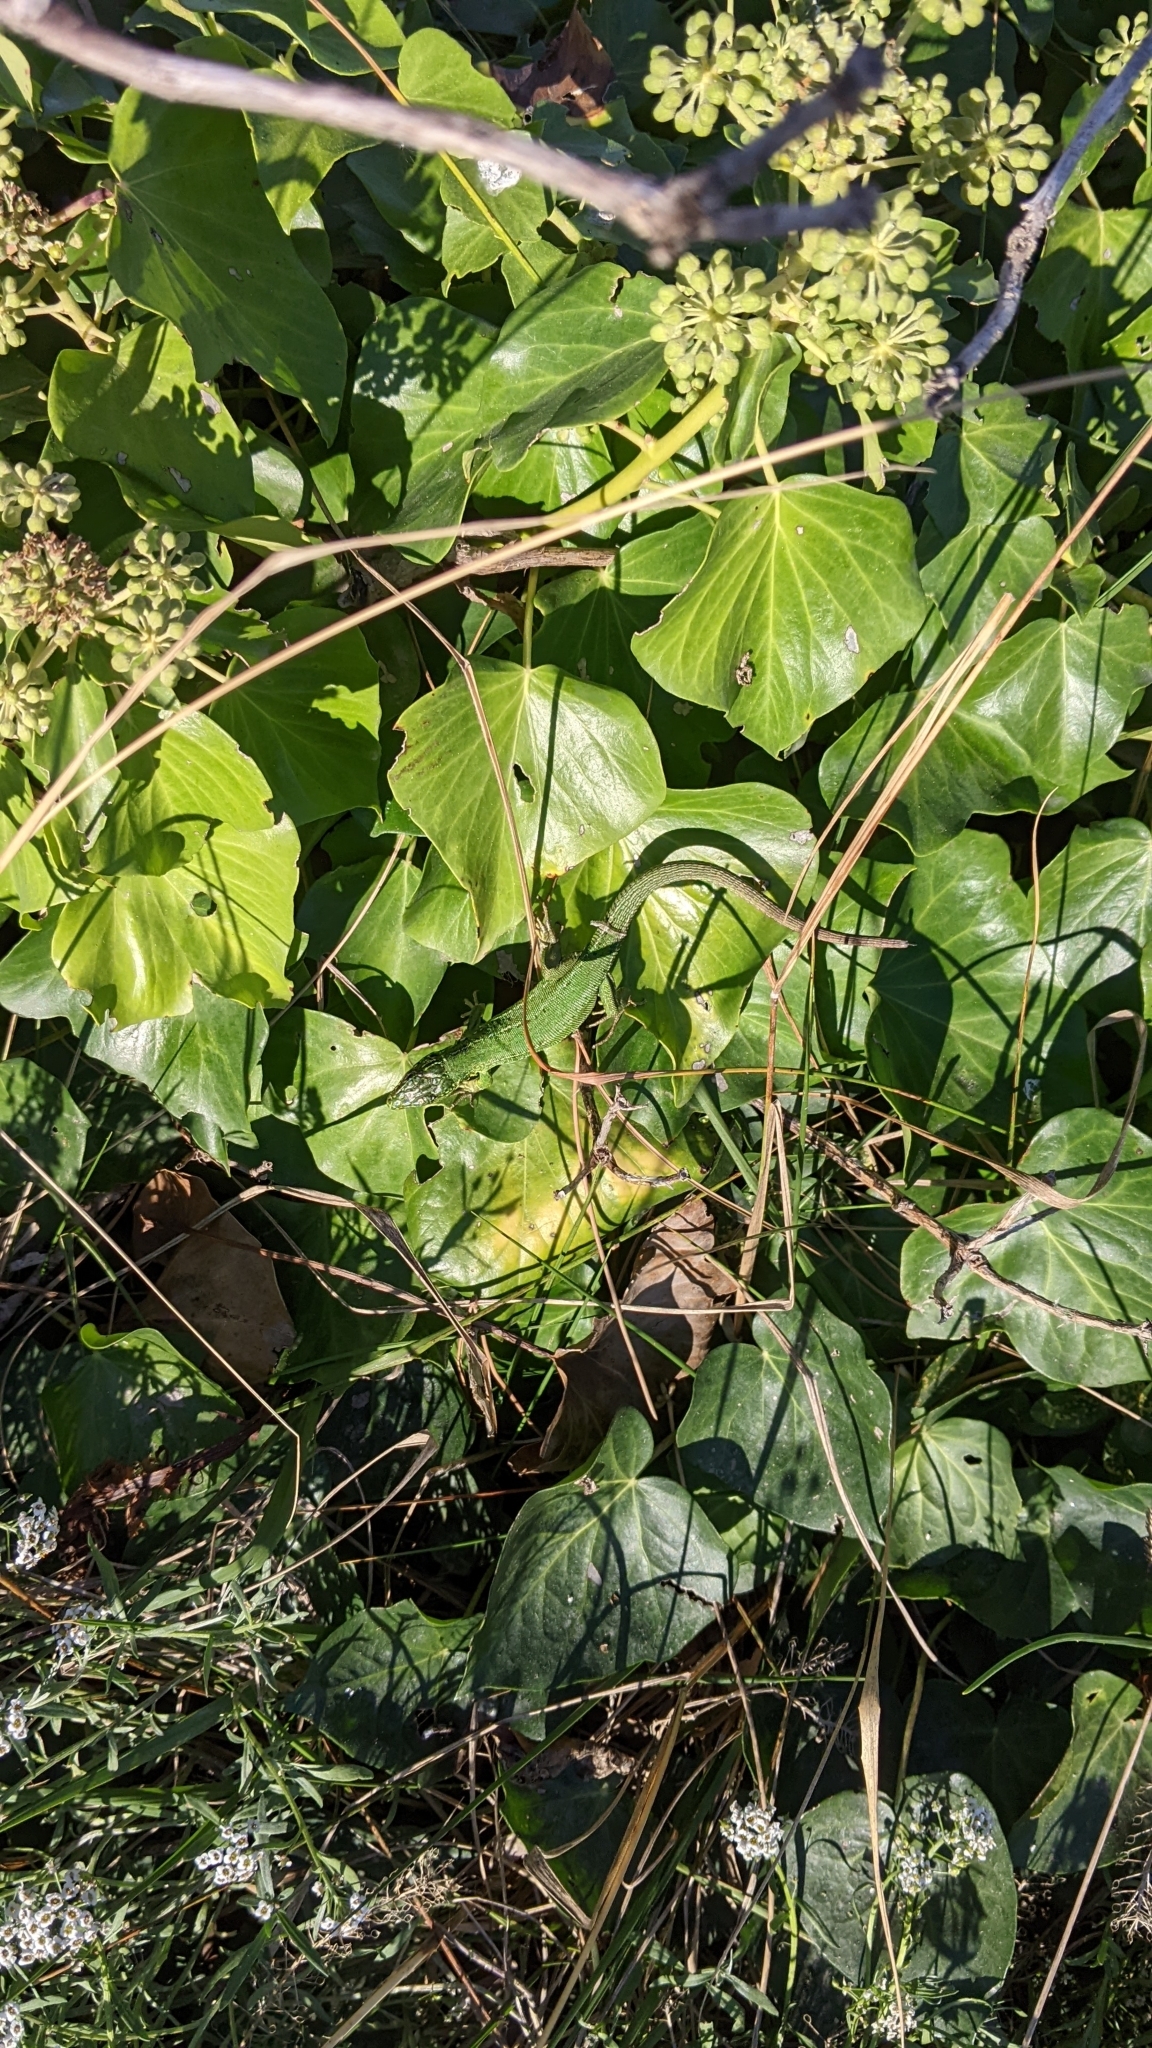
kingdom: Animalia
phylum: Chordata
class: Squamata
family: Lacertidae
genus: Lacerta
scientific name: Lacerta bilineata
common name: Western green lizard
